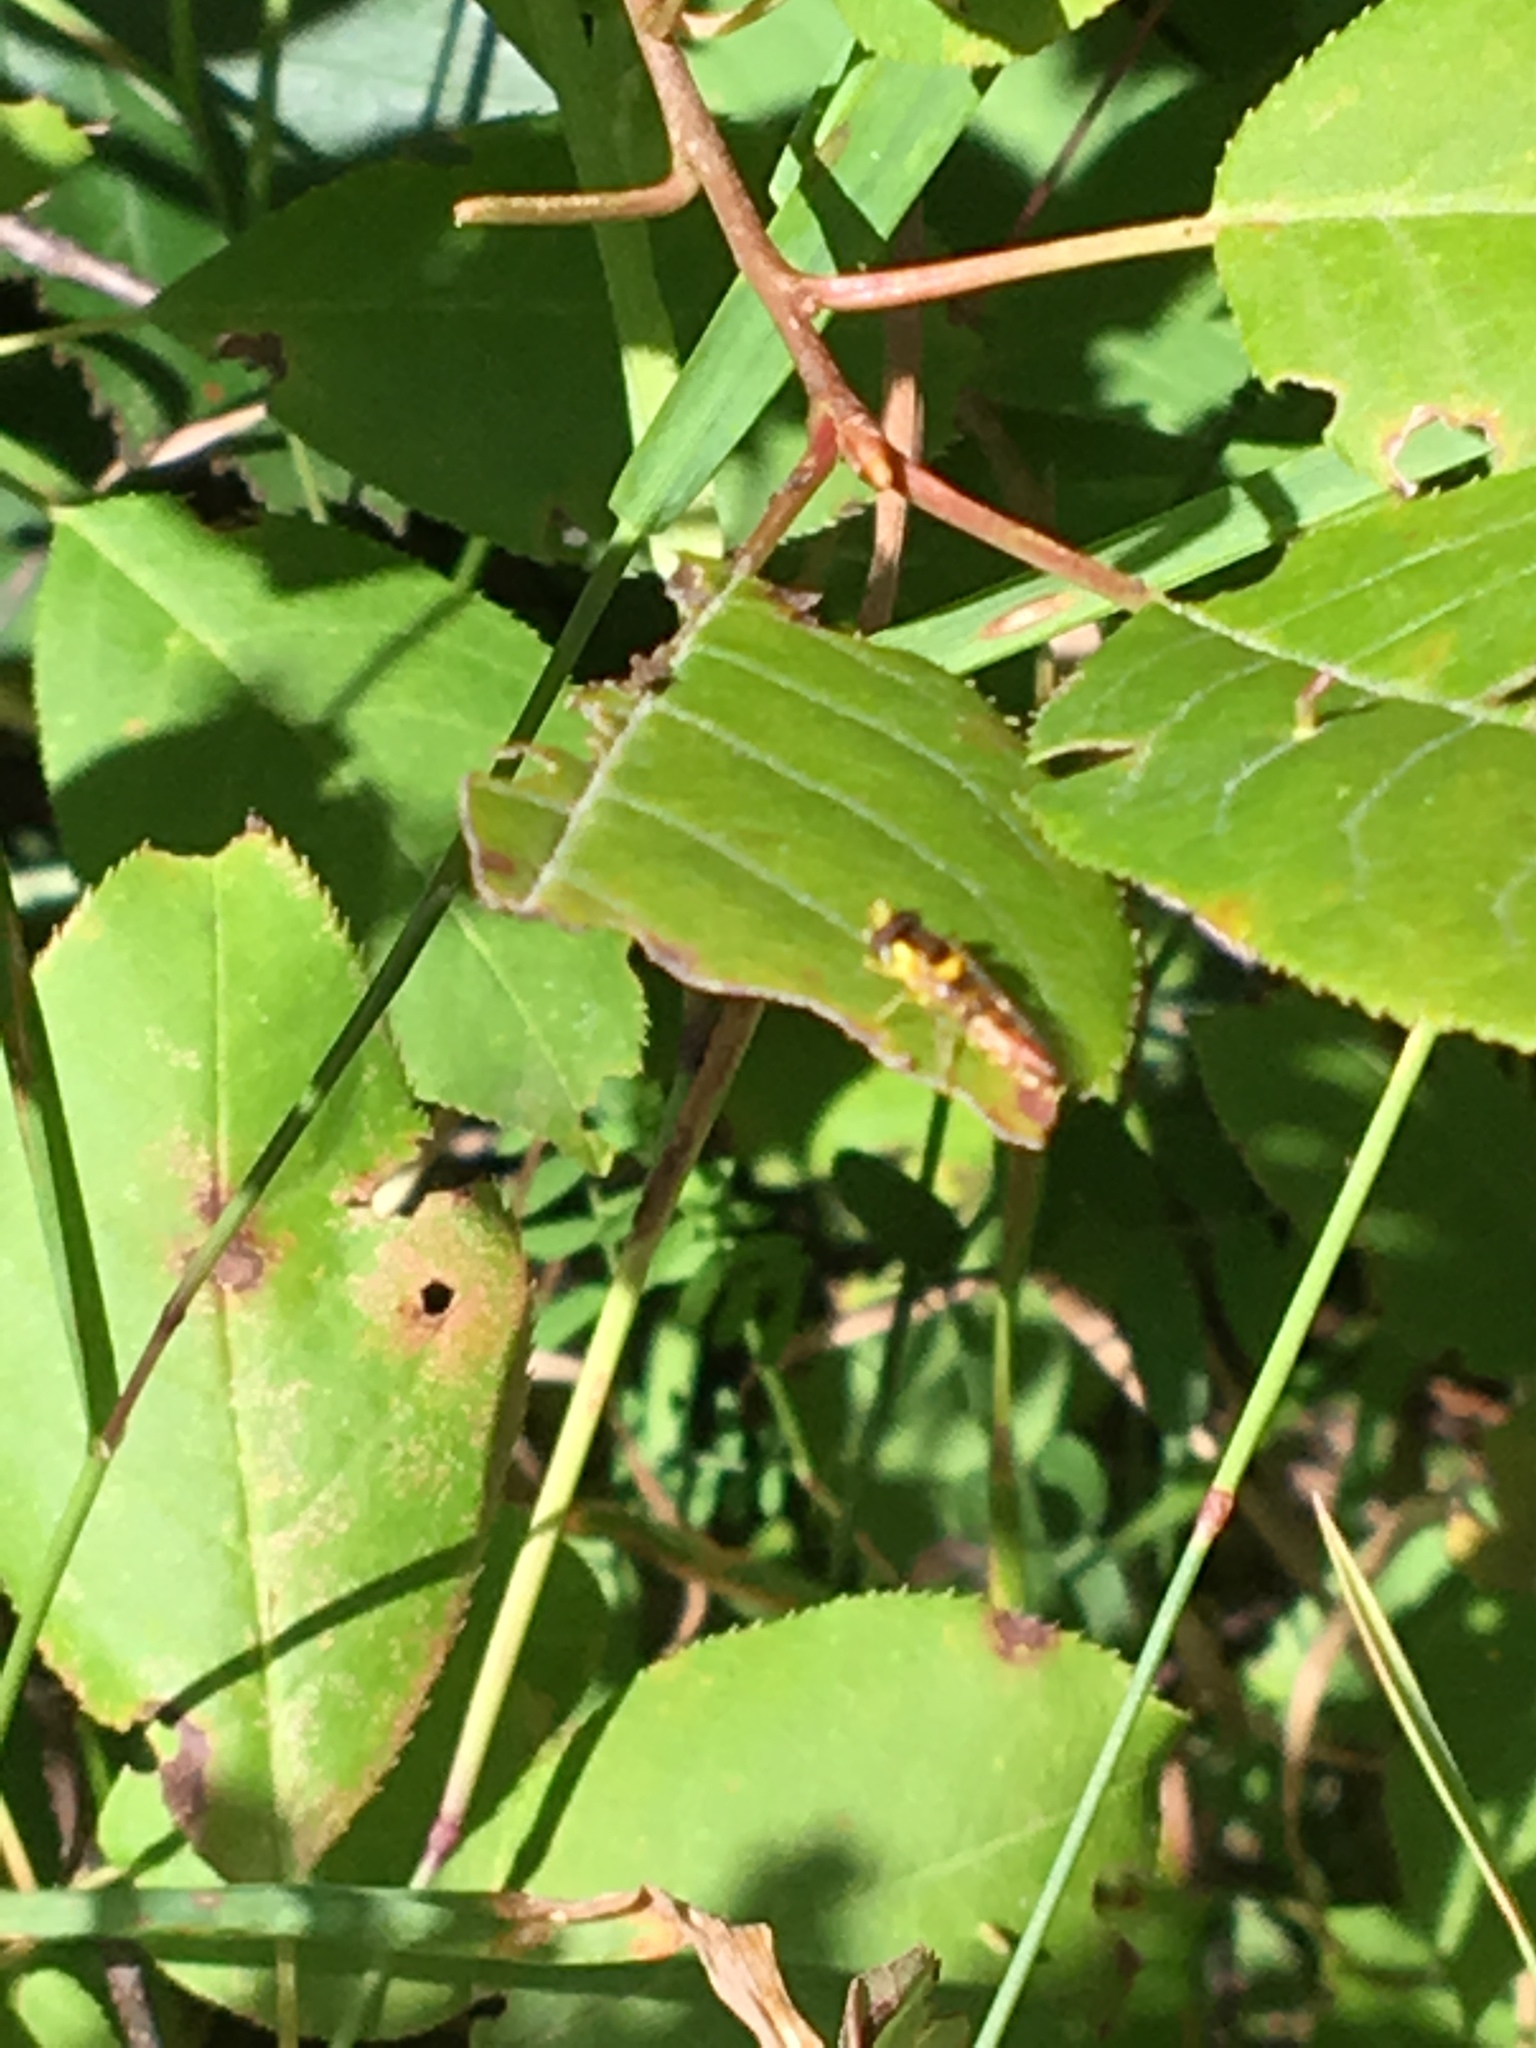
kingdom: Animalia
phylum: Arthropoda
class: Insecta
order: Diptera
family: Syrphidae
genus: Sphaerophoria
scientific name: Sphaerophoria
